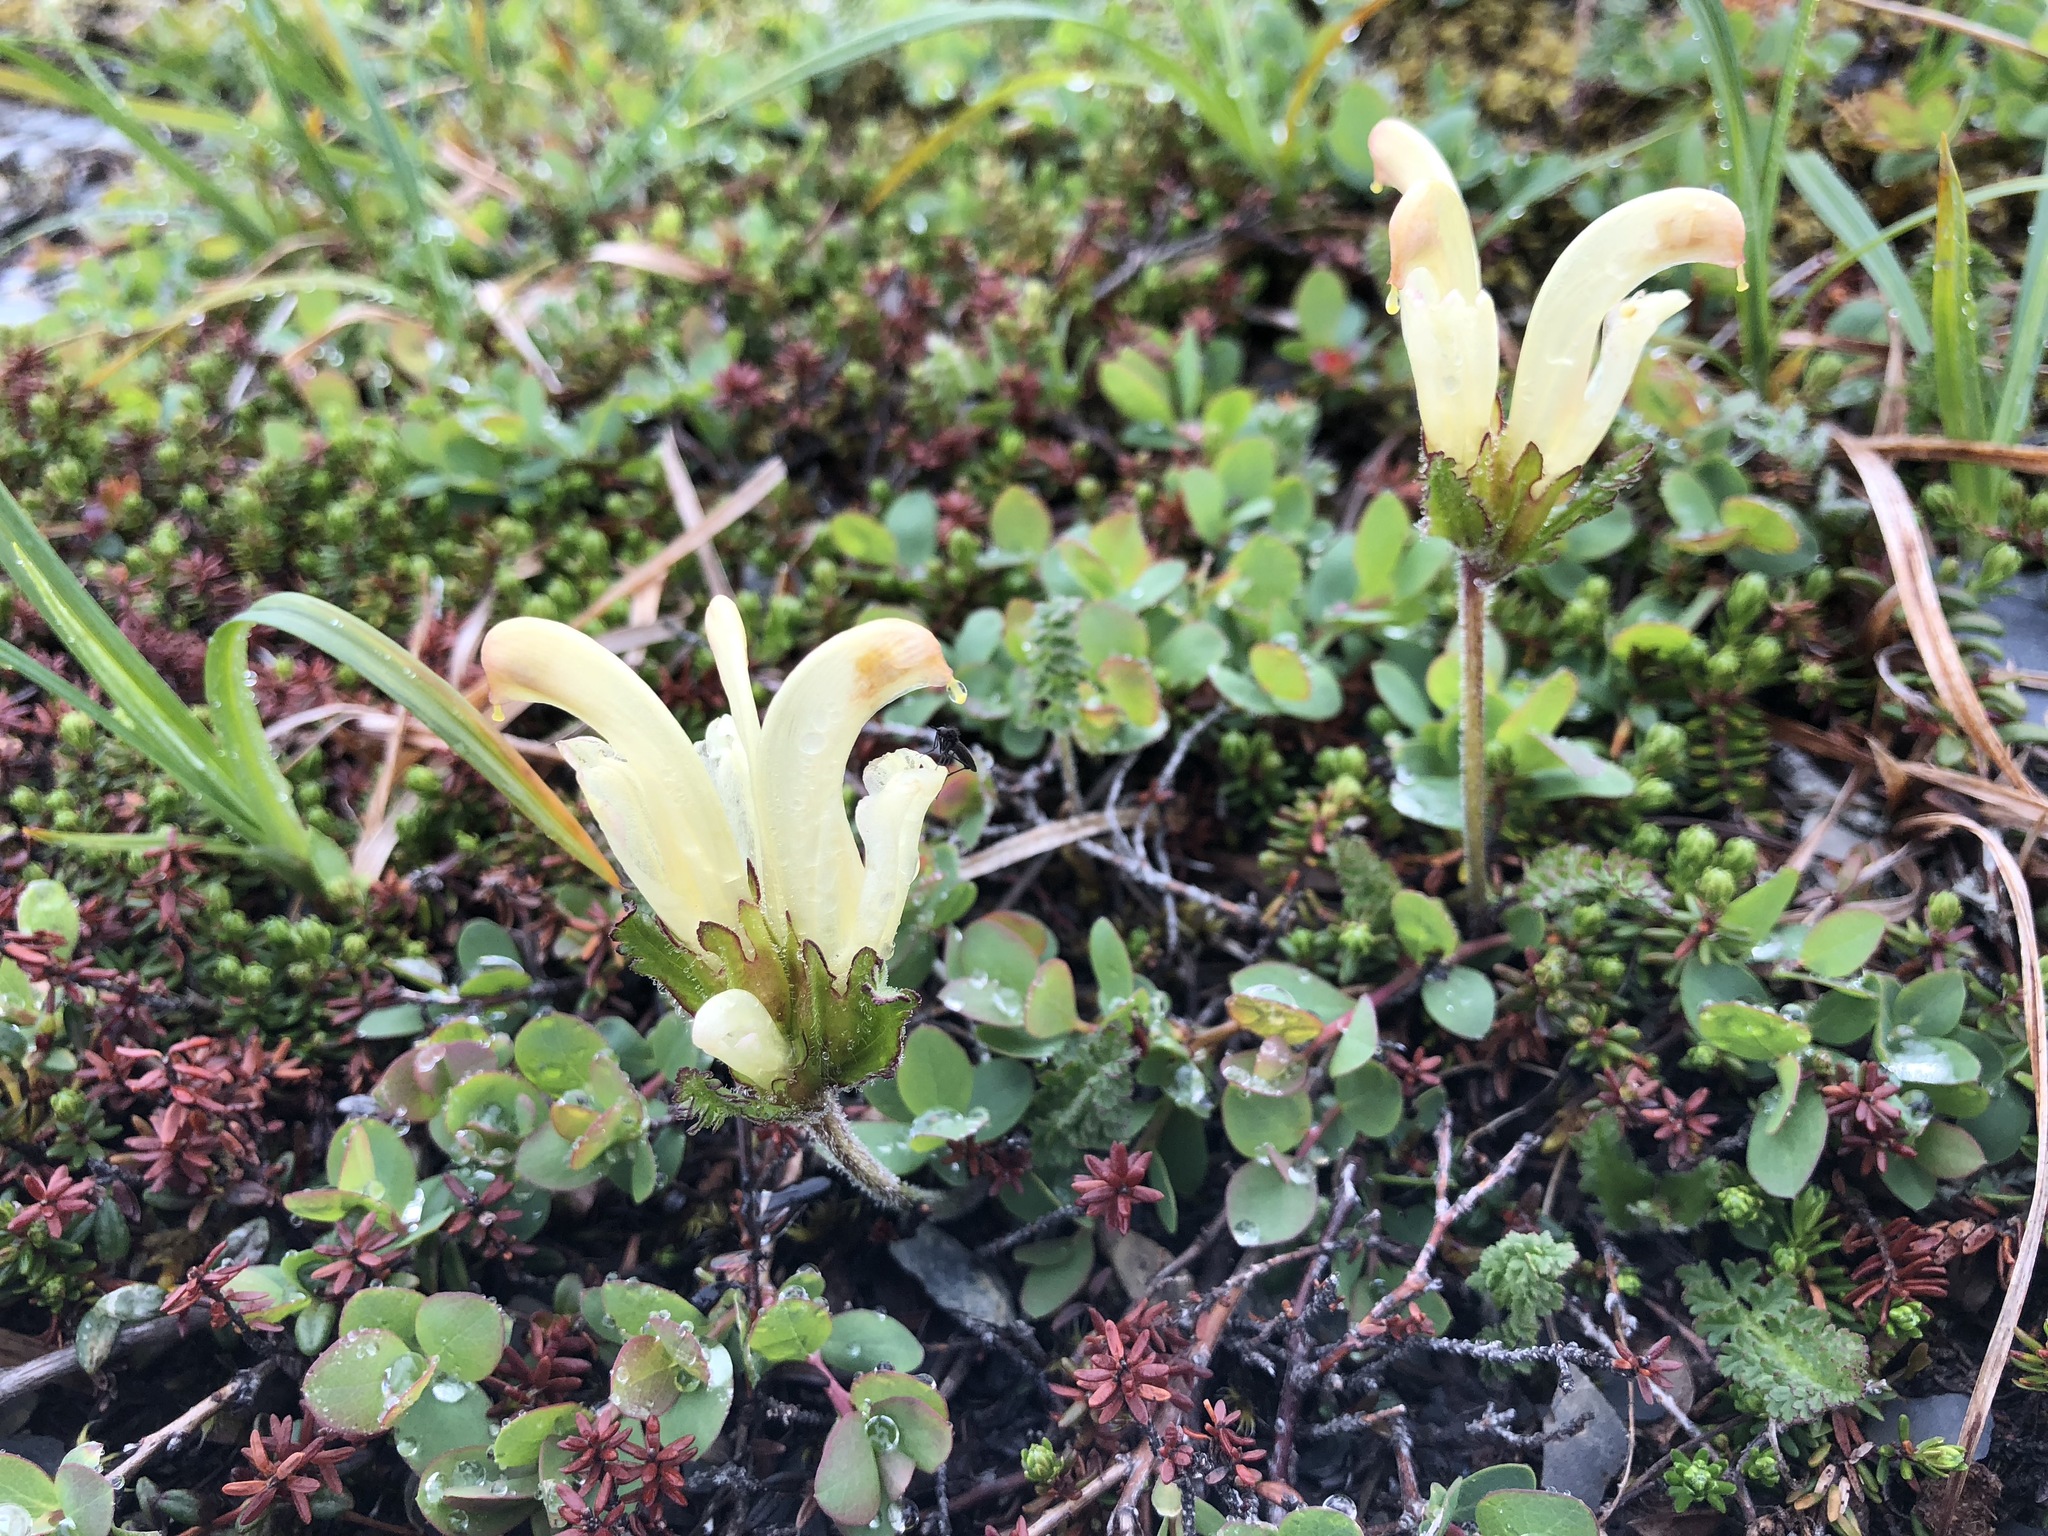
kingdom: Plantae
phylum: Tracheophyta
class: Magnoliopsida
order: Lamiales
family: Orobanchaceae
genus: Pedicularis
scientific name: Pedicularis capitata
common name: Capitate lousewort
